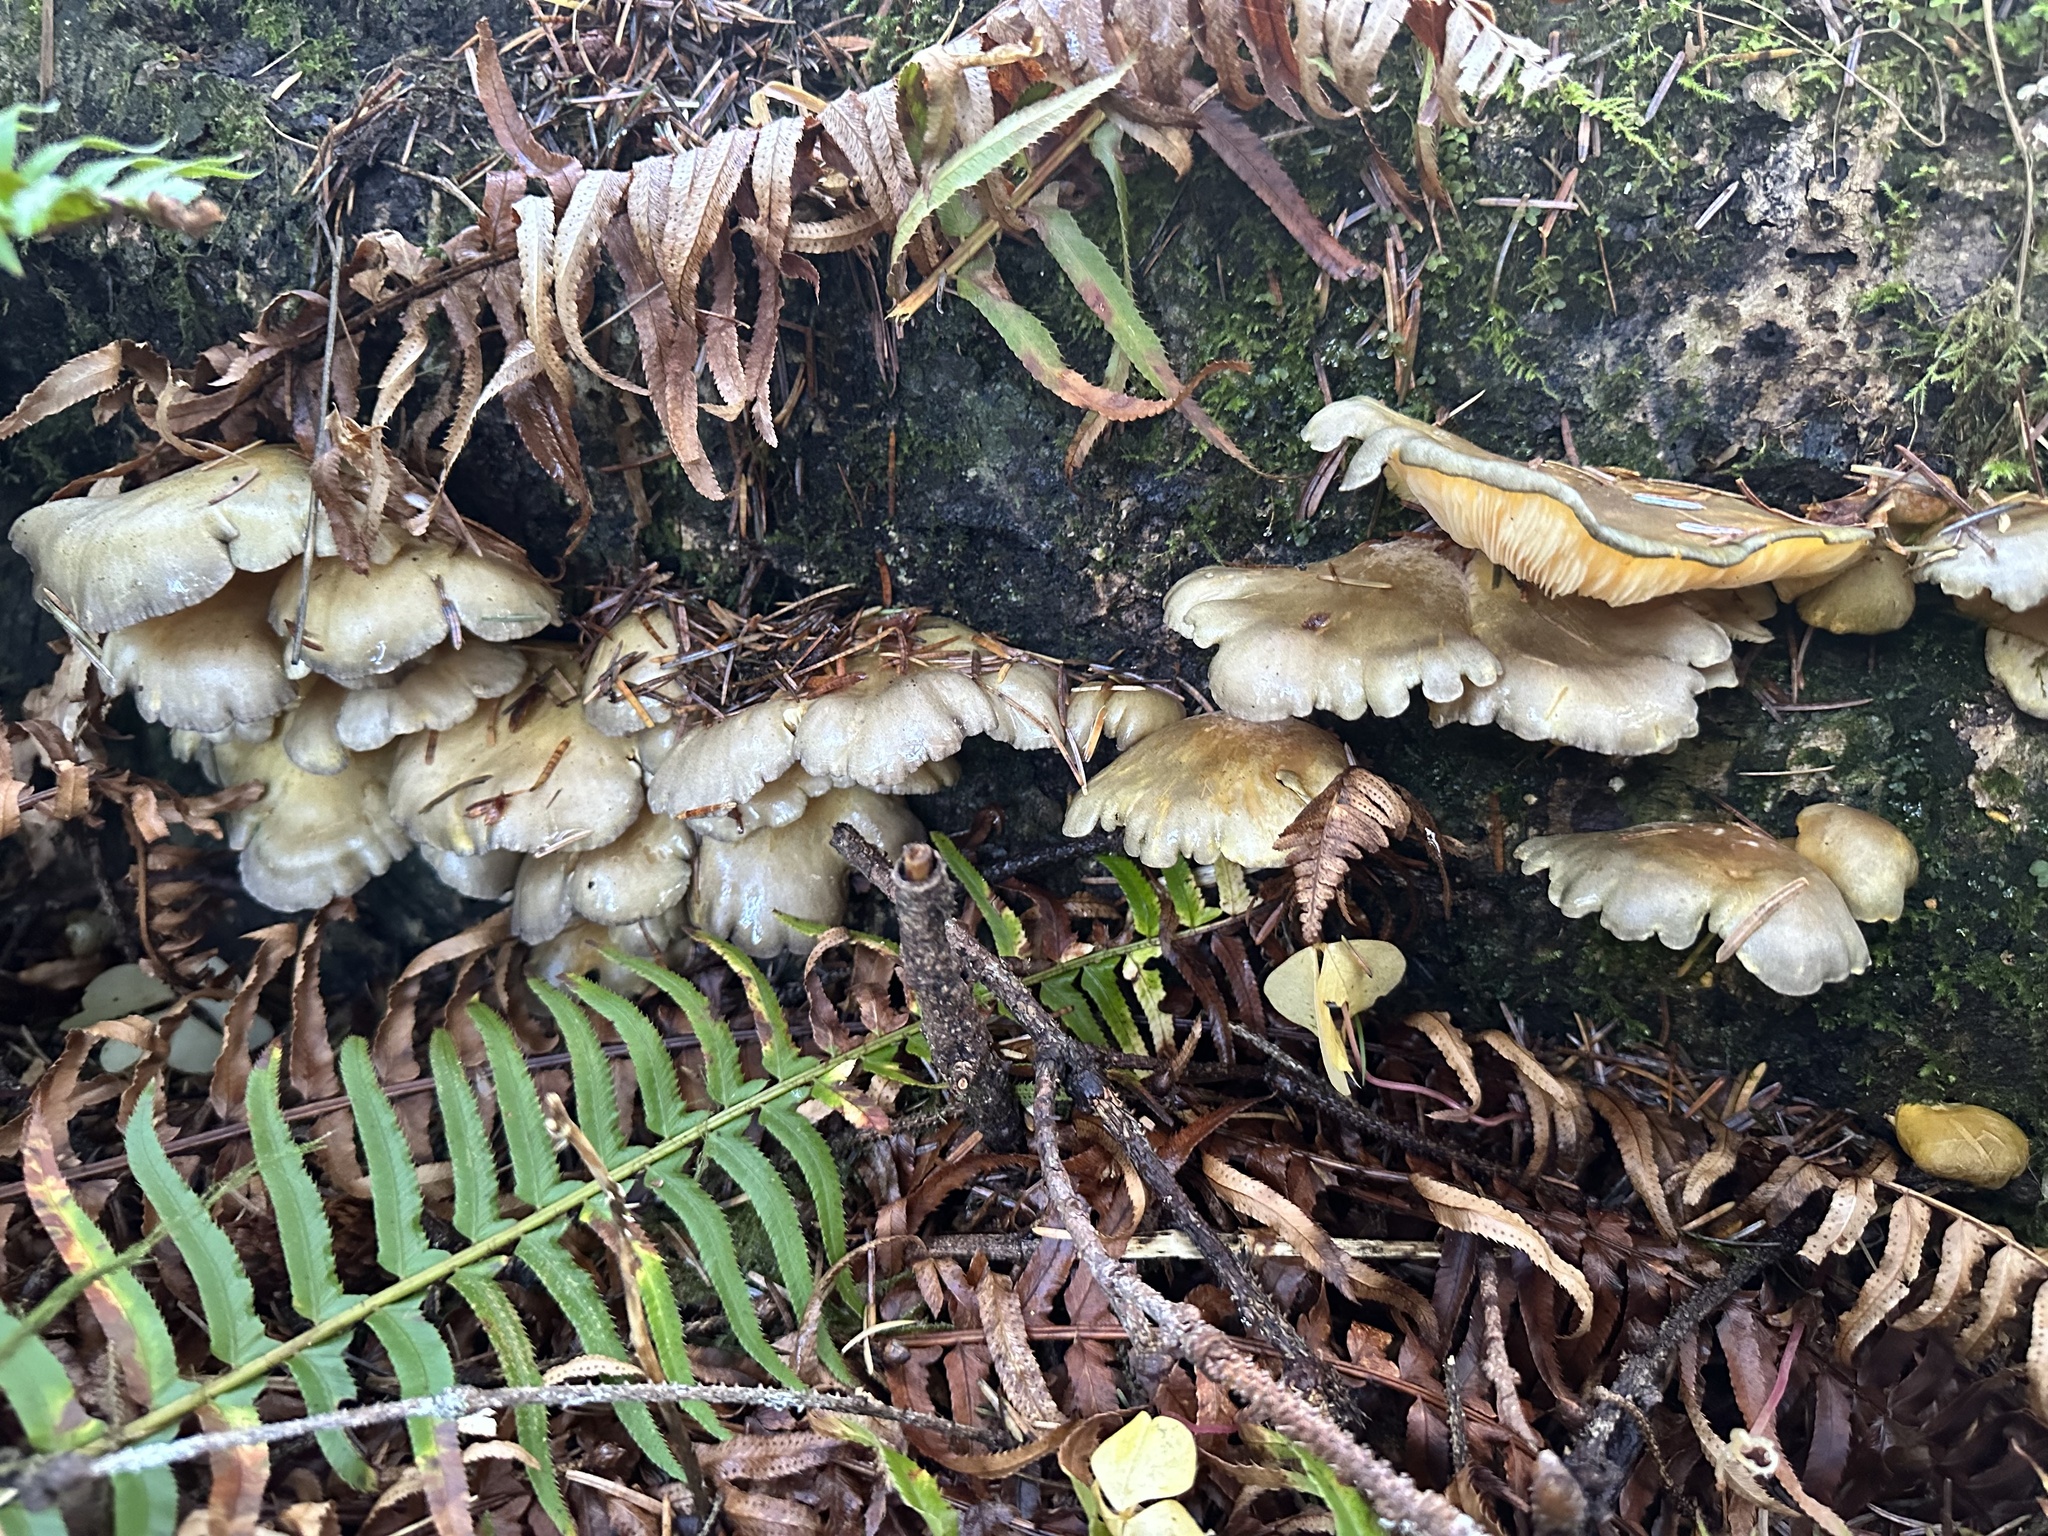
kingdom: Fungi
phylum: Basidiomycota
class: Agaricomycetes
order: Agaricales
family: Sarcomyxaceae
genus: Sarcomyxa
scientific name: Sarcomyxa serotina
